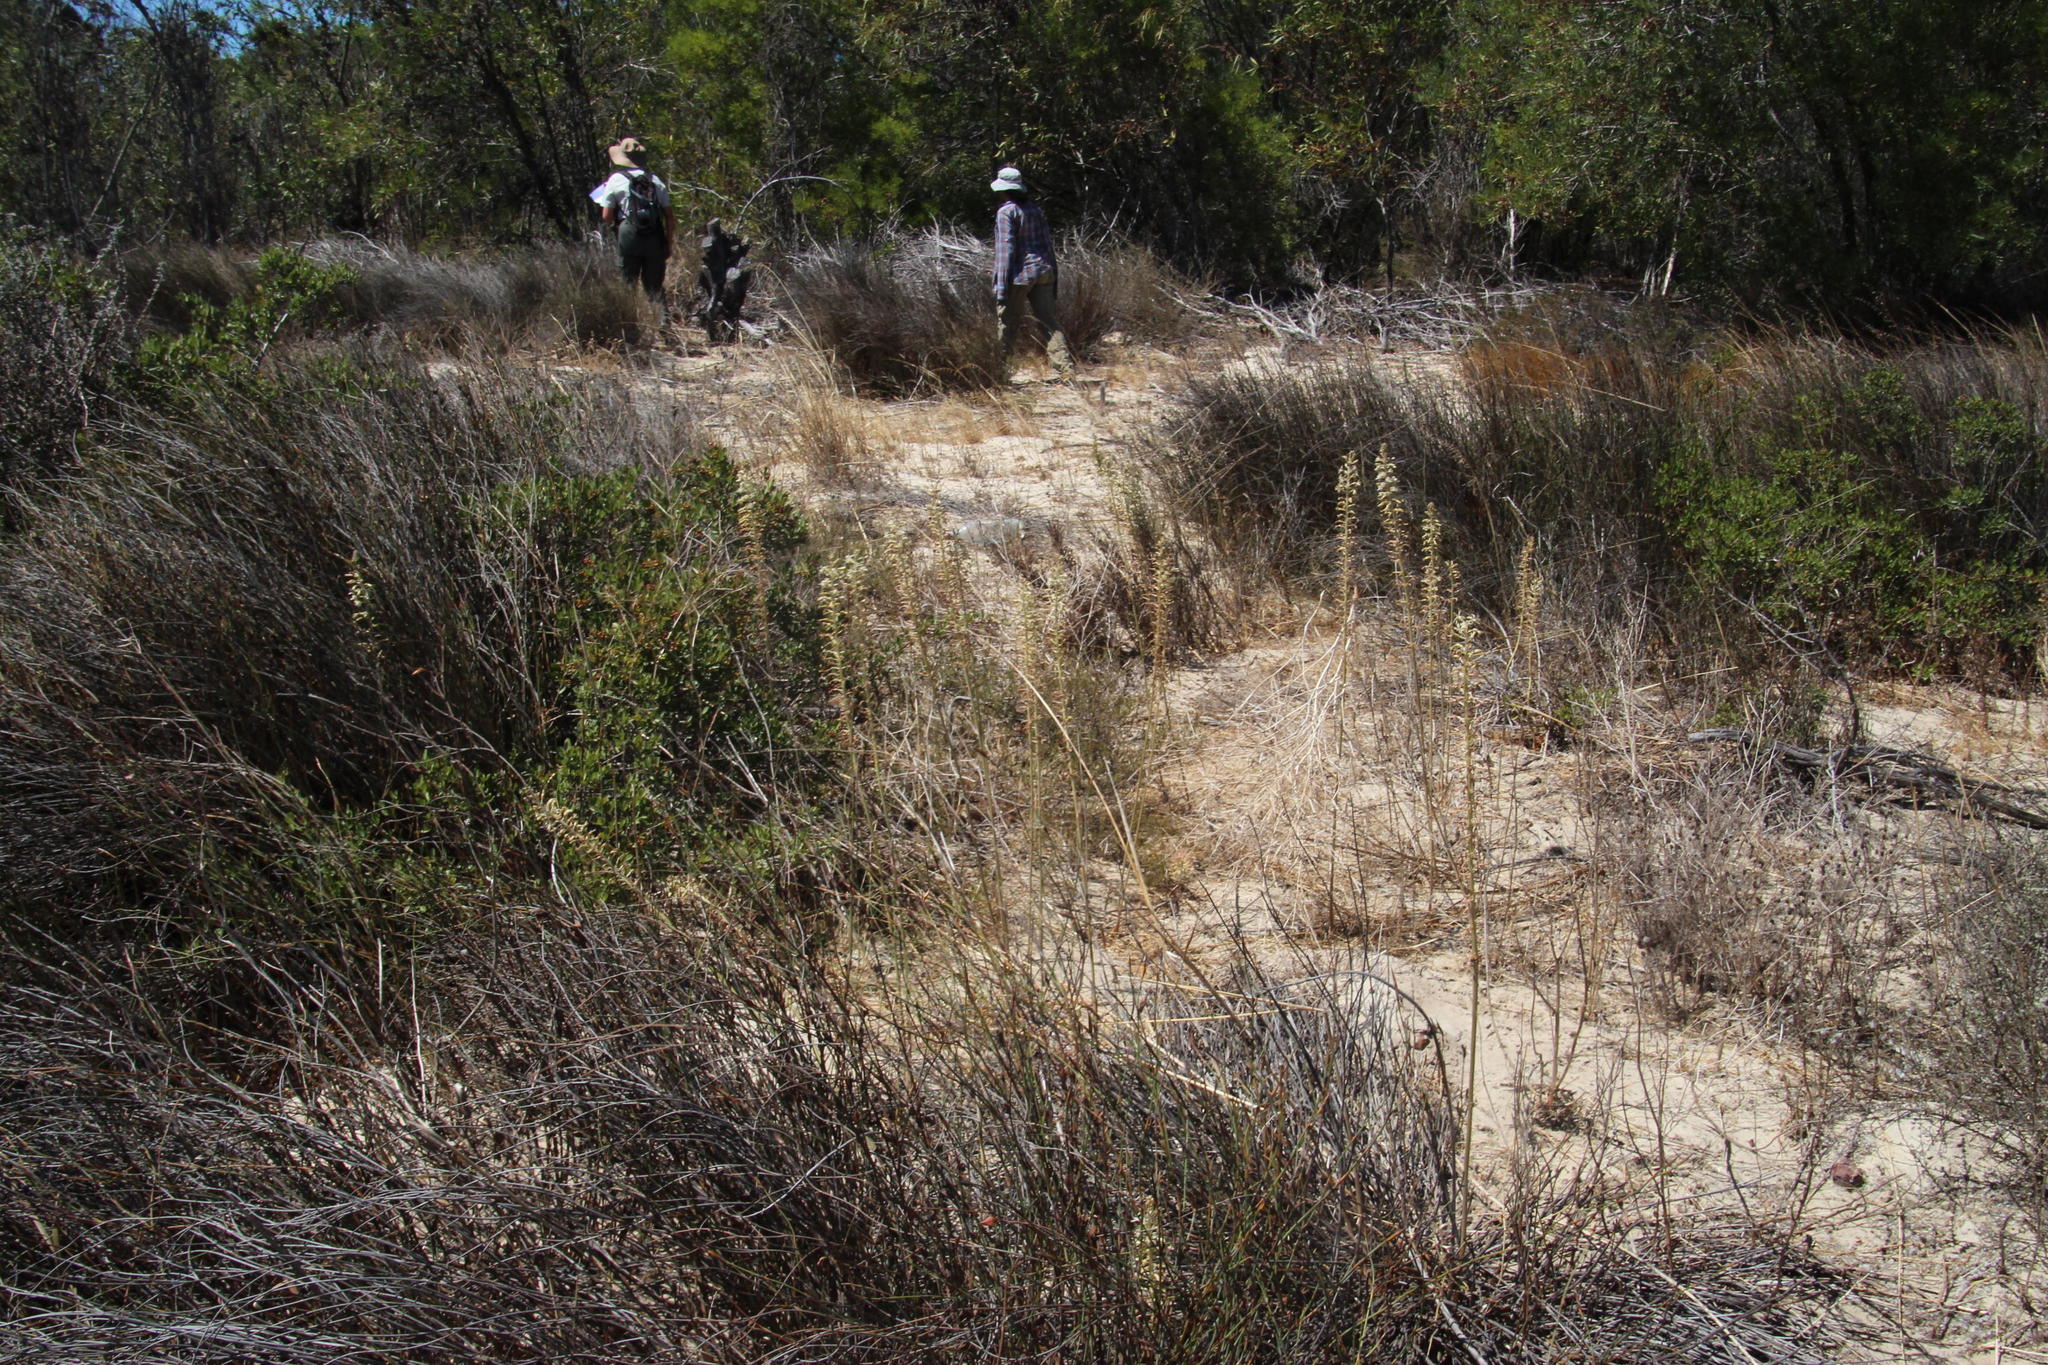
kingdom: Plantae
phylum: Tracheophyta
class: Liliopsida
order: Asparagales
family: Asparagaceae
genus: Drimia
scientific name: Drimia elata
